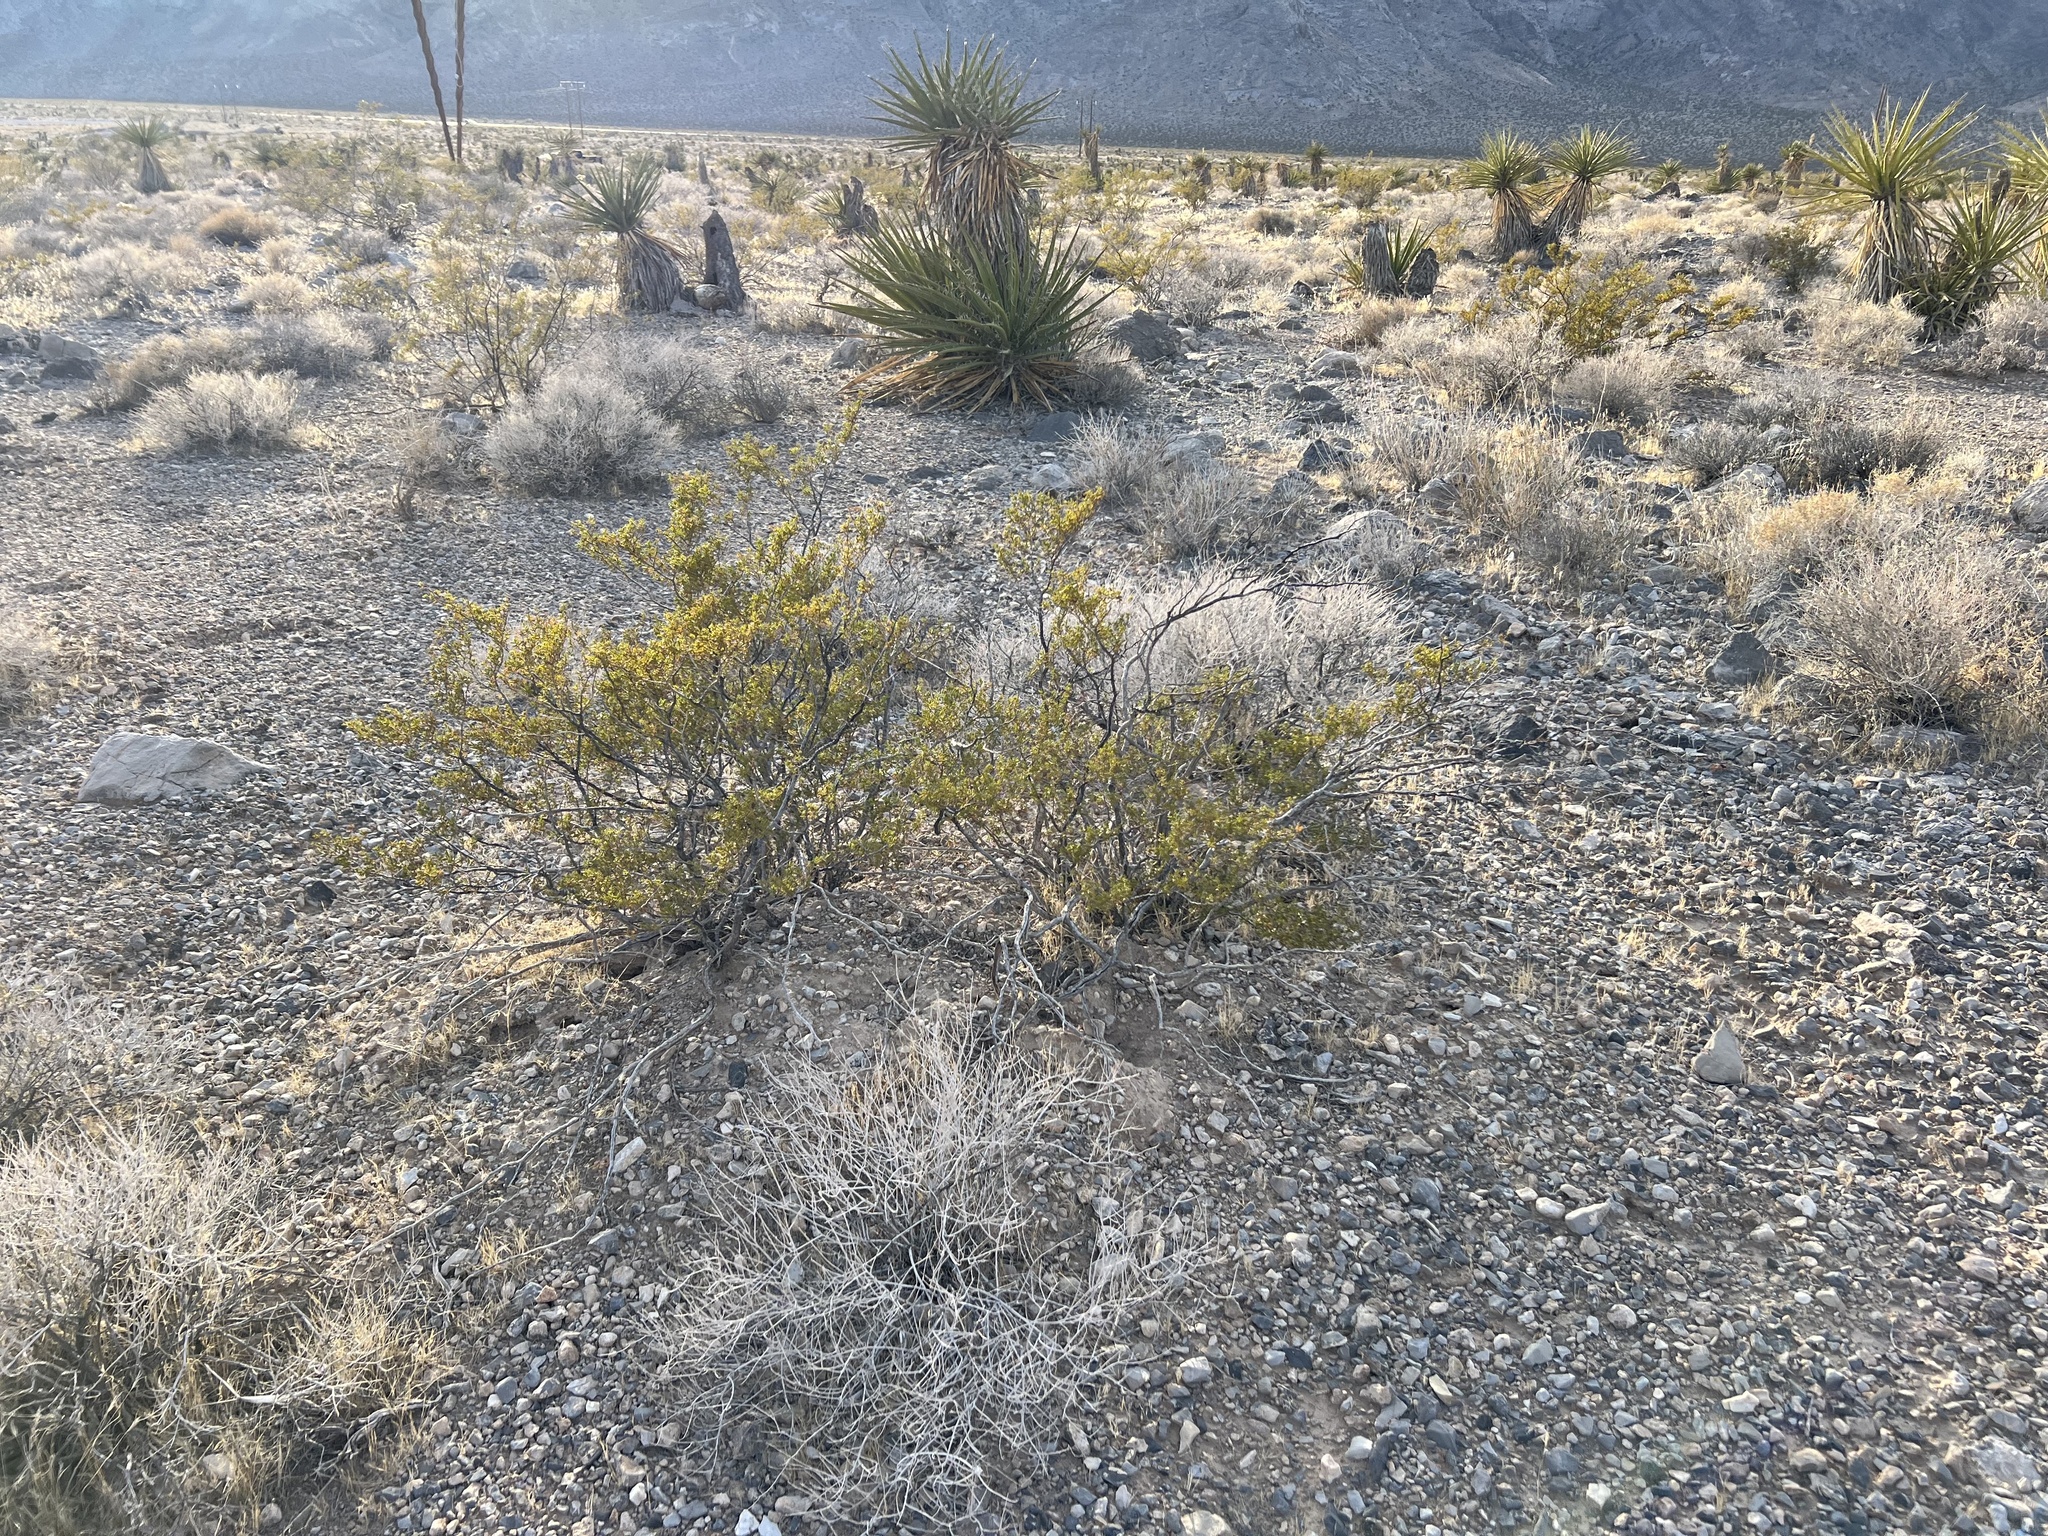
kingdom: Plantae
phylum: Tracheophyta
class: Magnoliopsida
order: Zygophyllales
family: Zygophyllaceae
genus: Larrea
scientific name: Larrea tridentata
